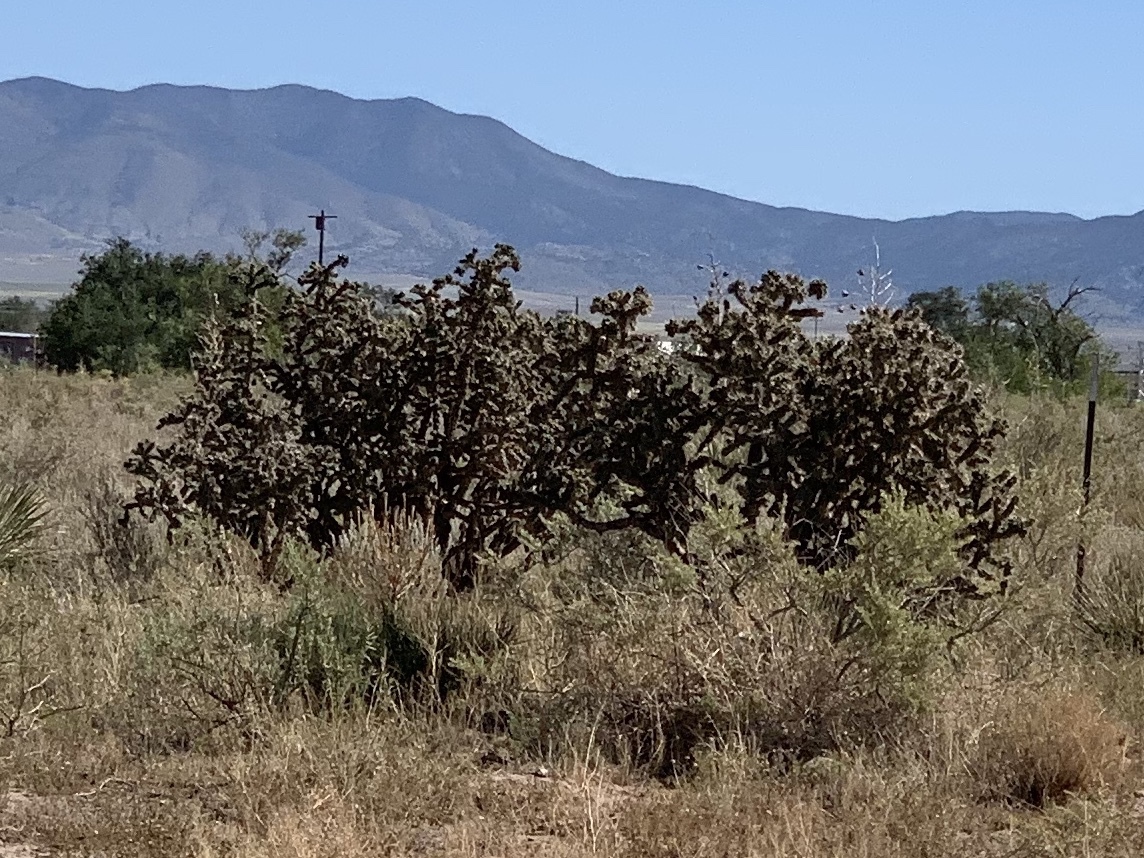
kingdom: Plantae
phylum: Tracheophyta
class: Magnoliopsida
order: Caryophyllales
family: Cactaceae
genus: Cylindropuntia
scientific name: Cylindropuntia imbricata
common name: Candelabrum cactus
